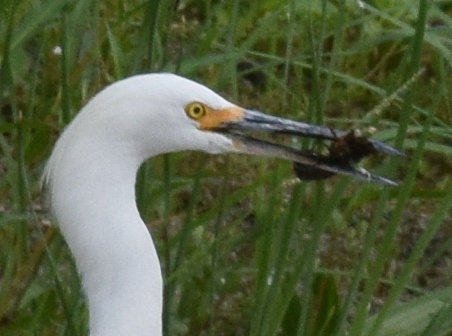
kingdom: Animalia
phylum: Chordata
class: Aves
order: Pelecaniformes
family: Ardeidae
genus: Egretta
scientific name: Egretta thula
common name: Snowy egret
